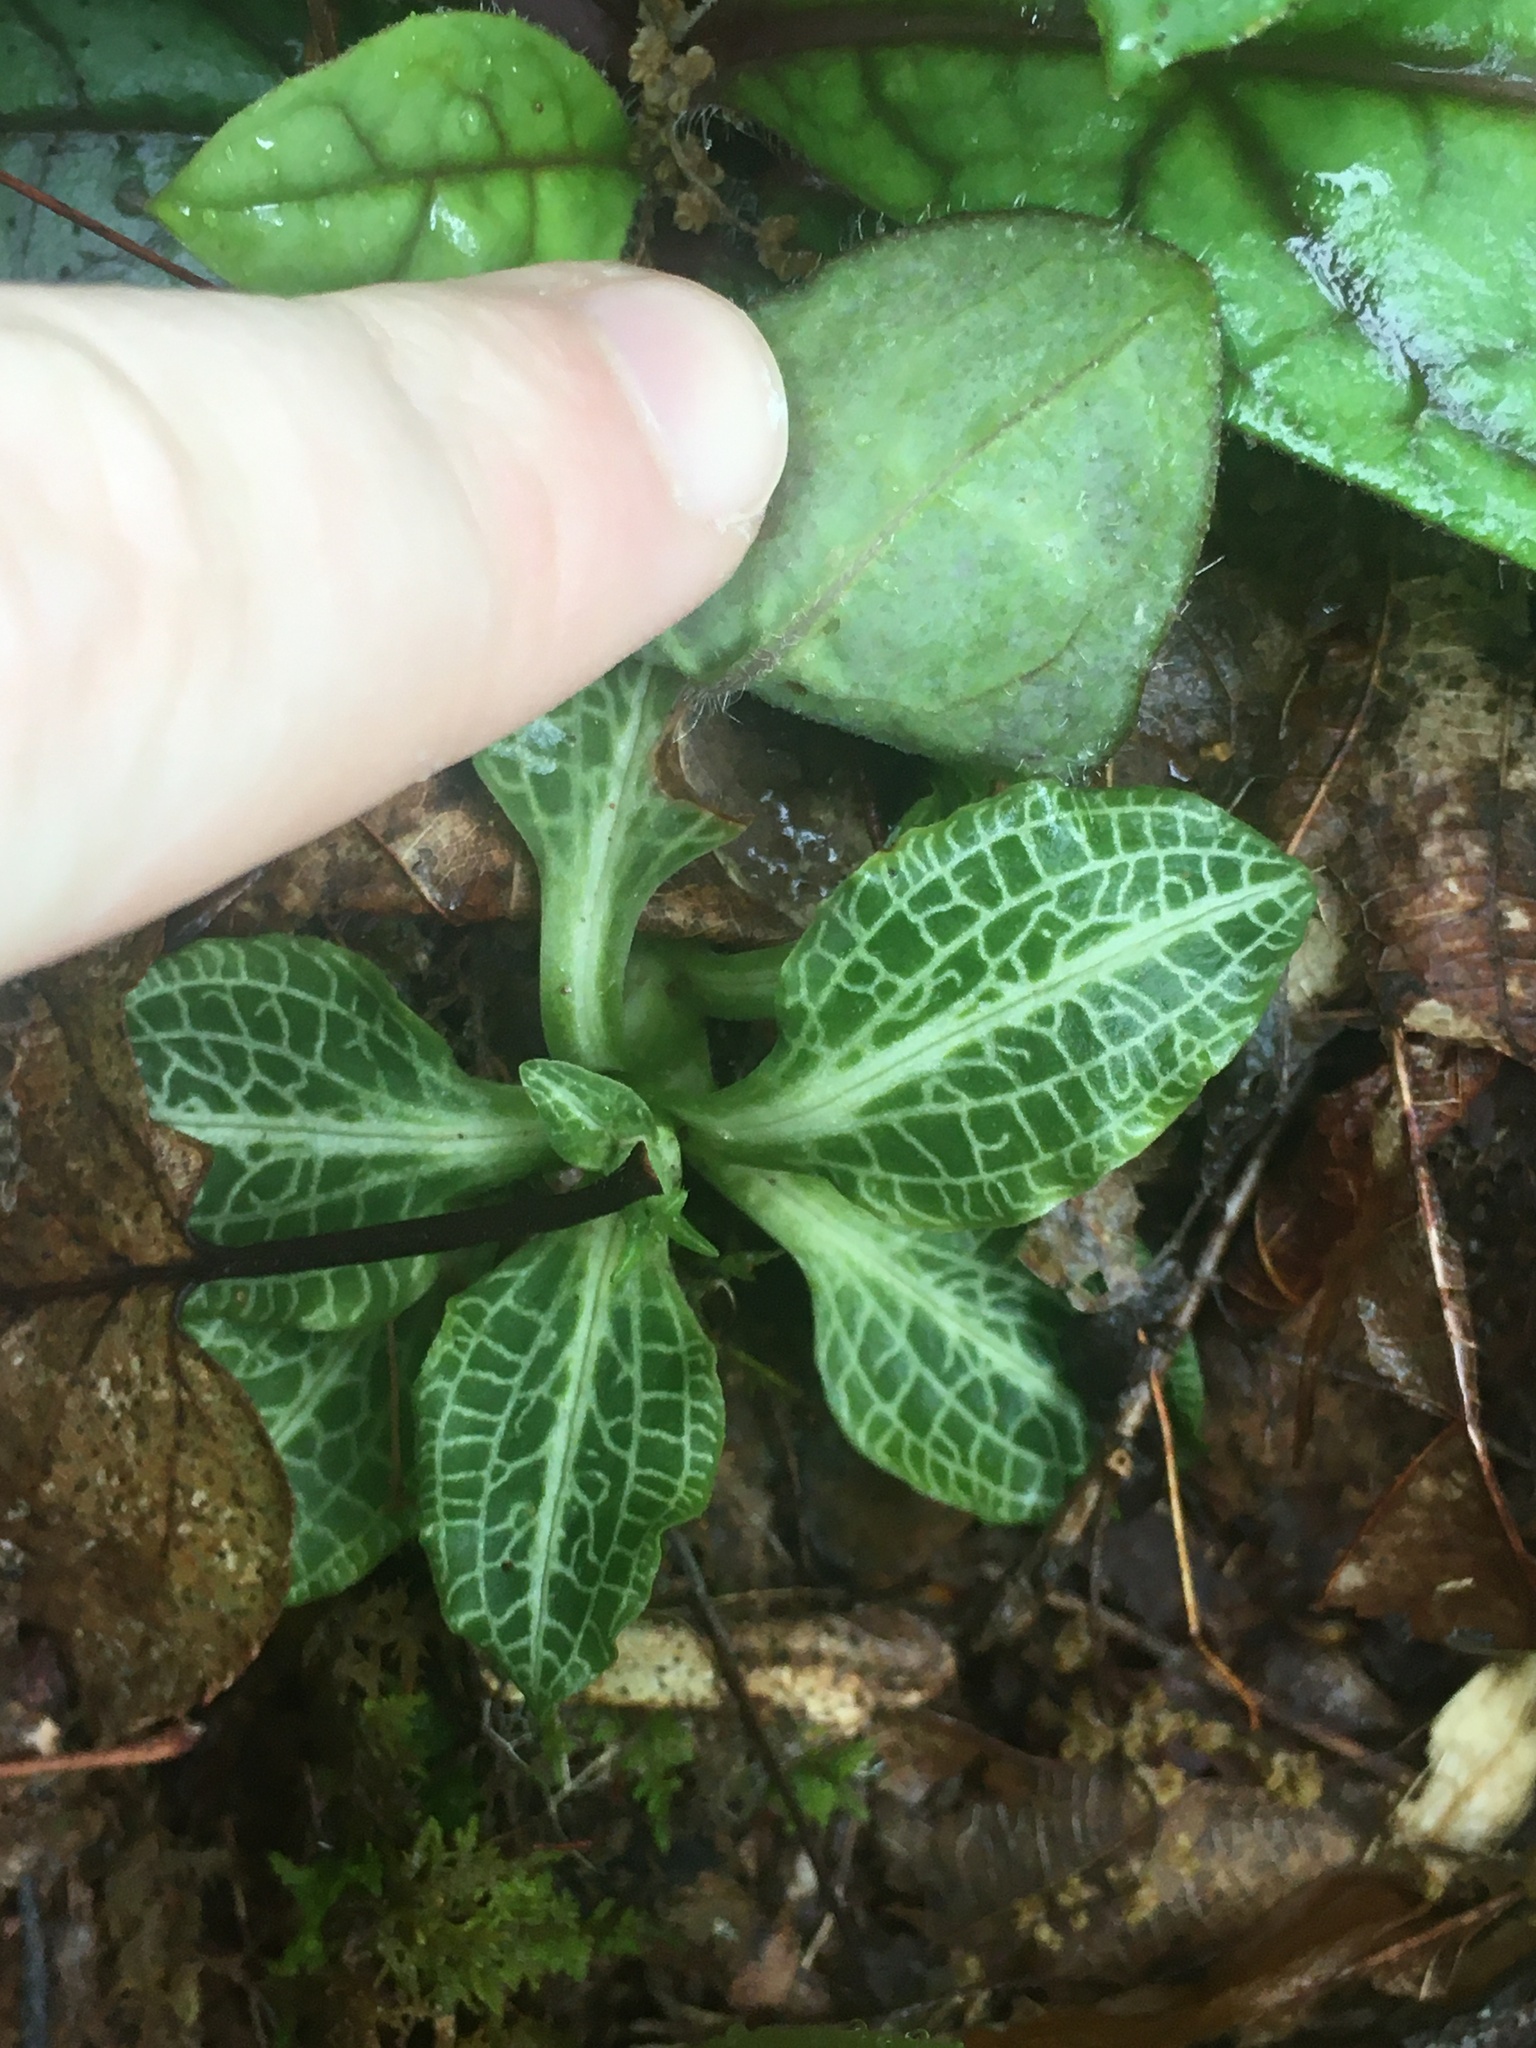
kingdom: Plantae
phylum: Tracheophyta
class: Liliopsida
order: Asparagales
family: Orchidaceae
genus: Goodyera
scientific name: Goodyera pubescens
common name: Downy rattlesnake-plantain
